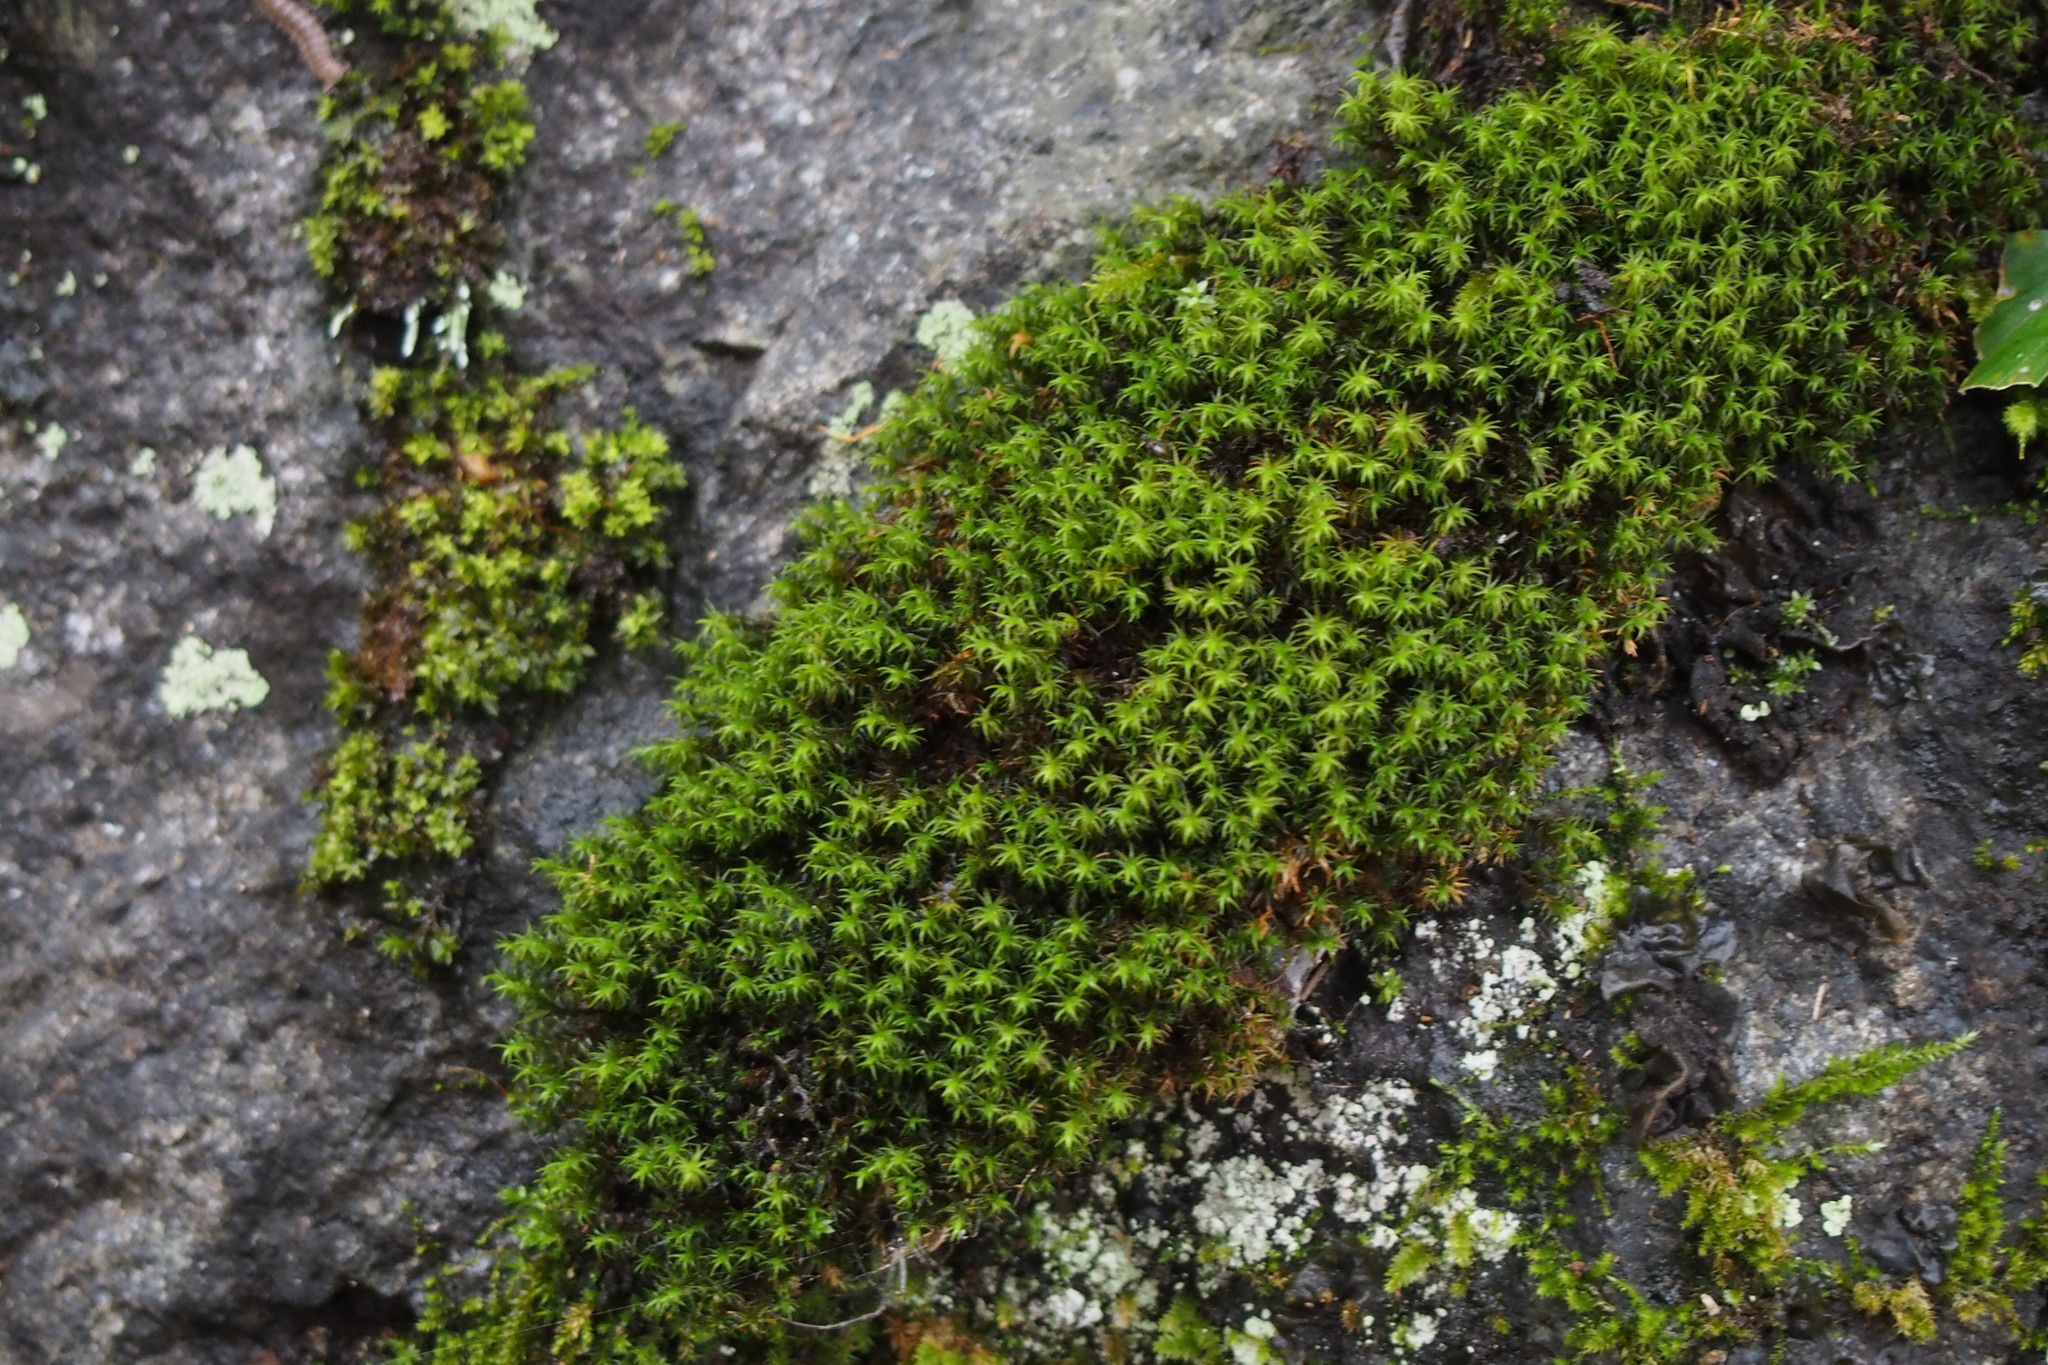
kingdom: Plantae
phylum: Bryophyta
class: Polytrichopsida
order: Polytrichales
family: Polytrichaceae
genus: Pogonatum
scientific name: Pogonatum inflexum
